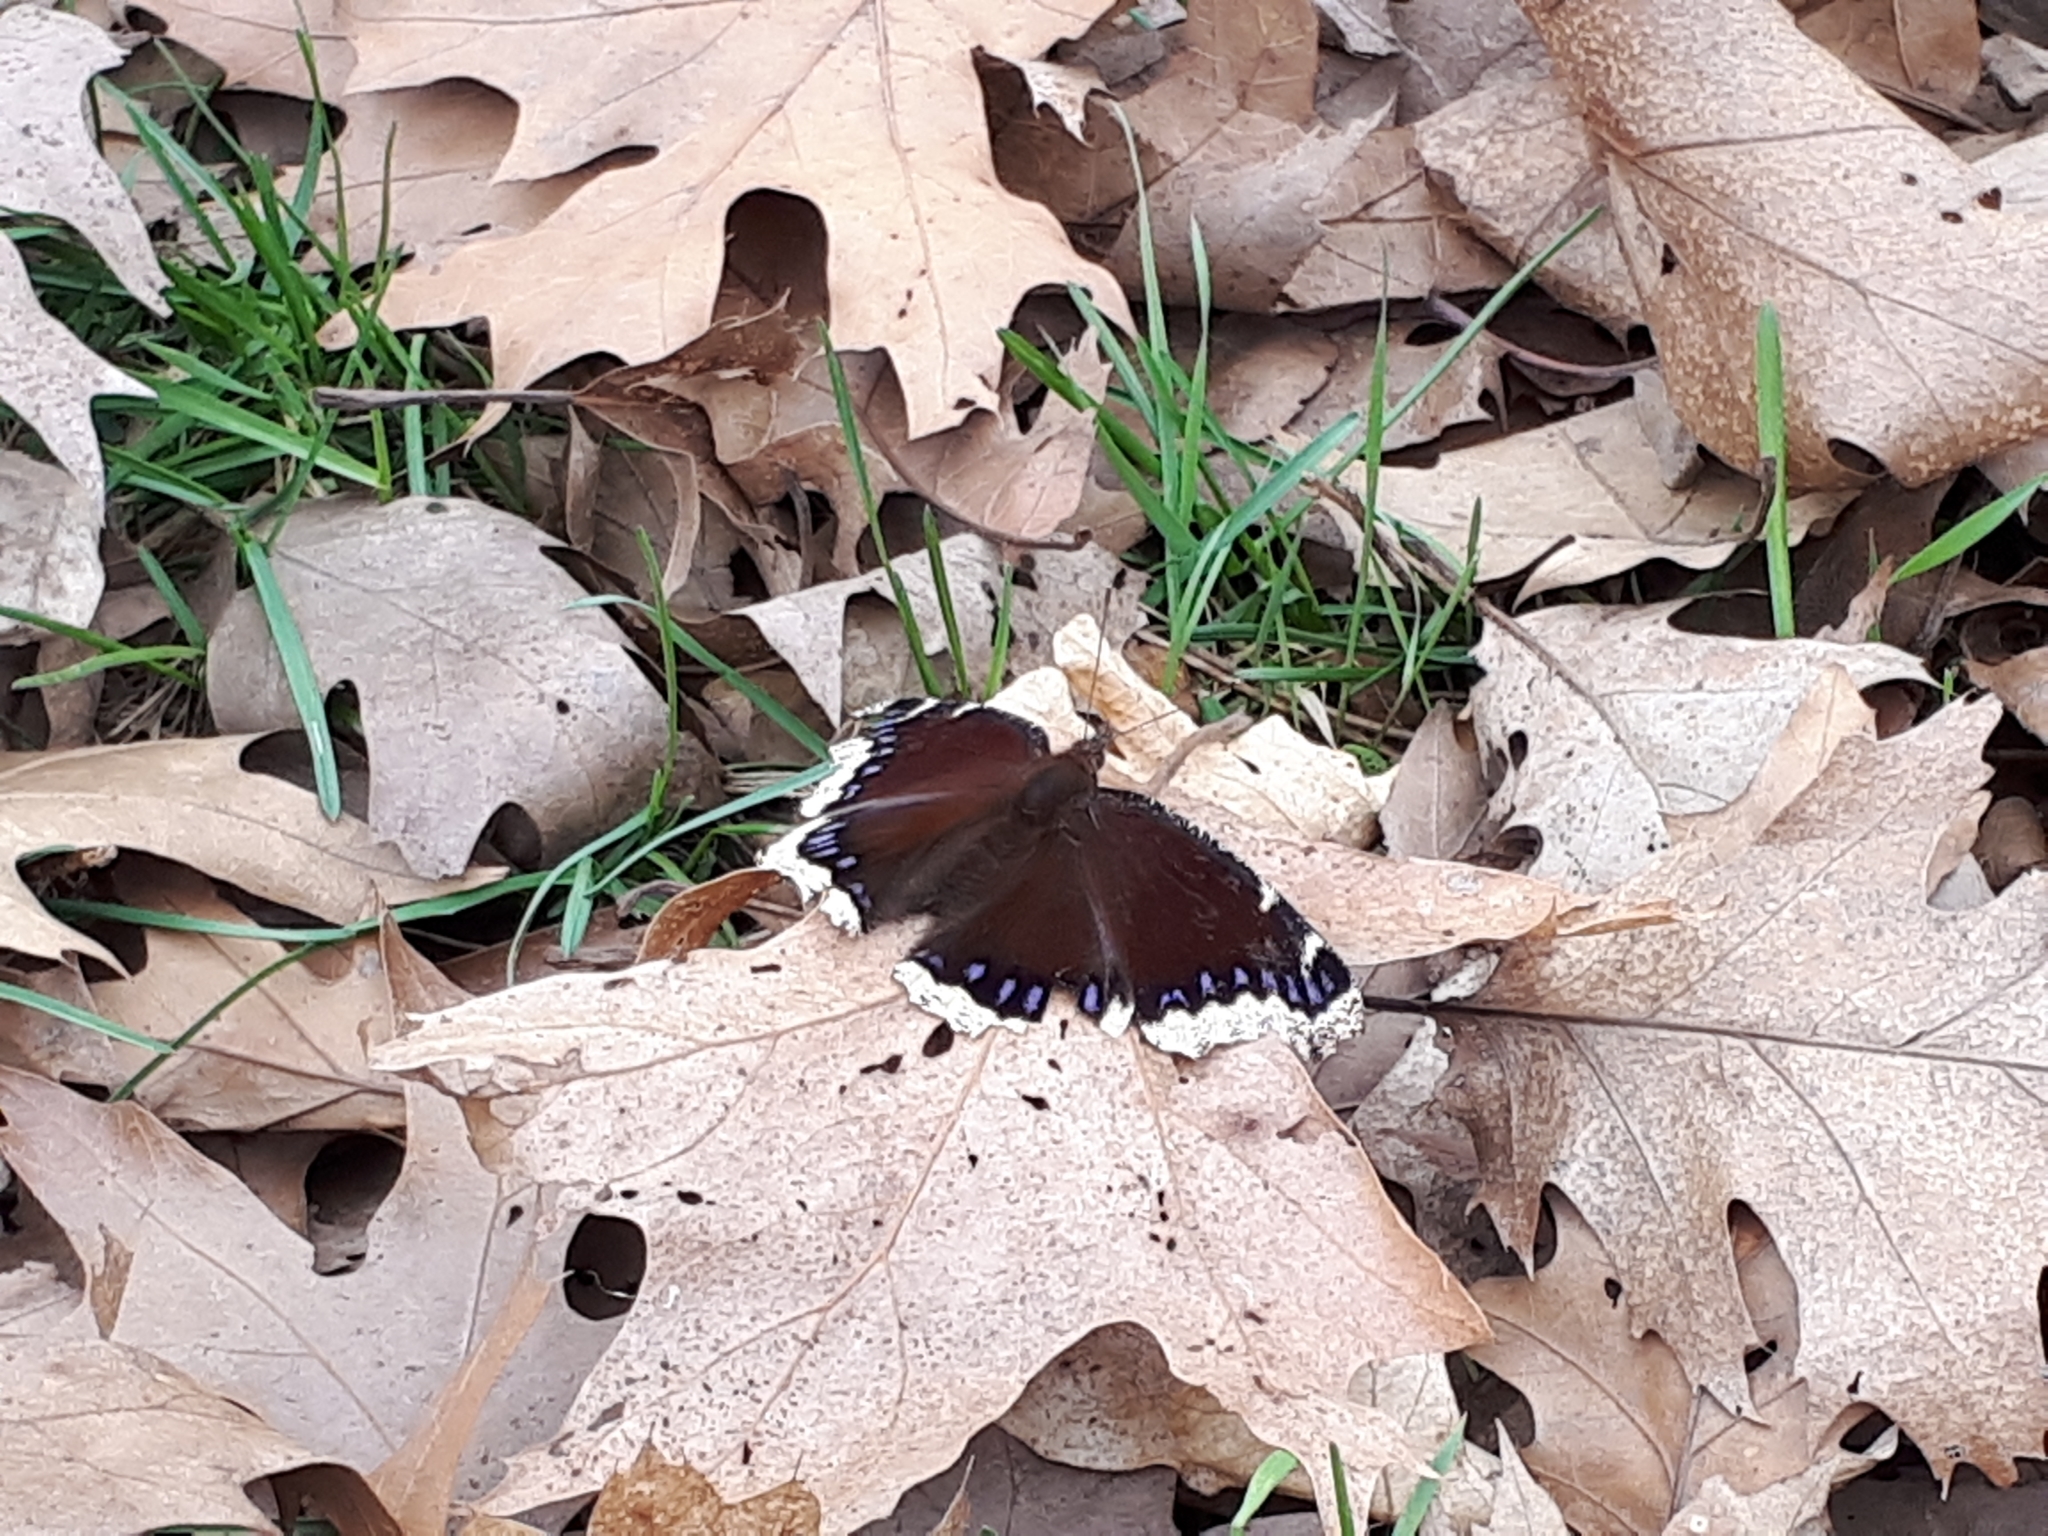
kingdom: Animalia
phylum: Arthropoda
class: Insecta
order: Lepidoptera
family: Nymphalidae
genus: Nymphalis
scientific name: Nymphalis antiopa
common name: Camberwell beauty
